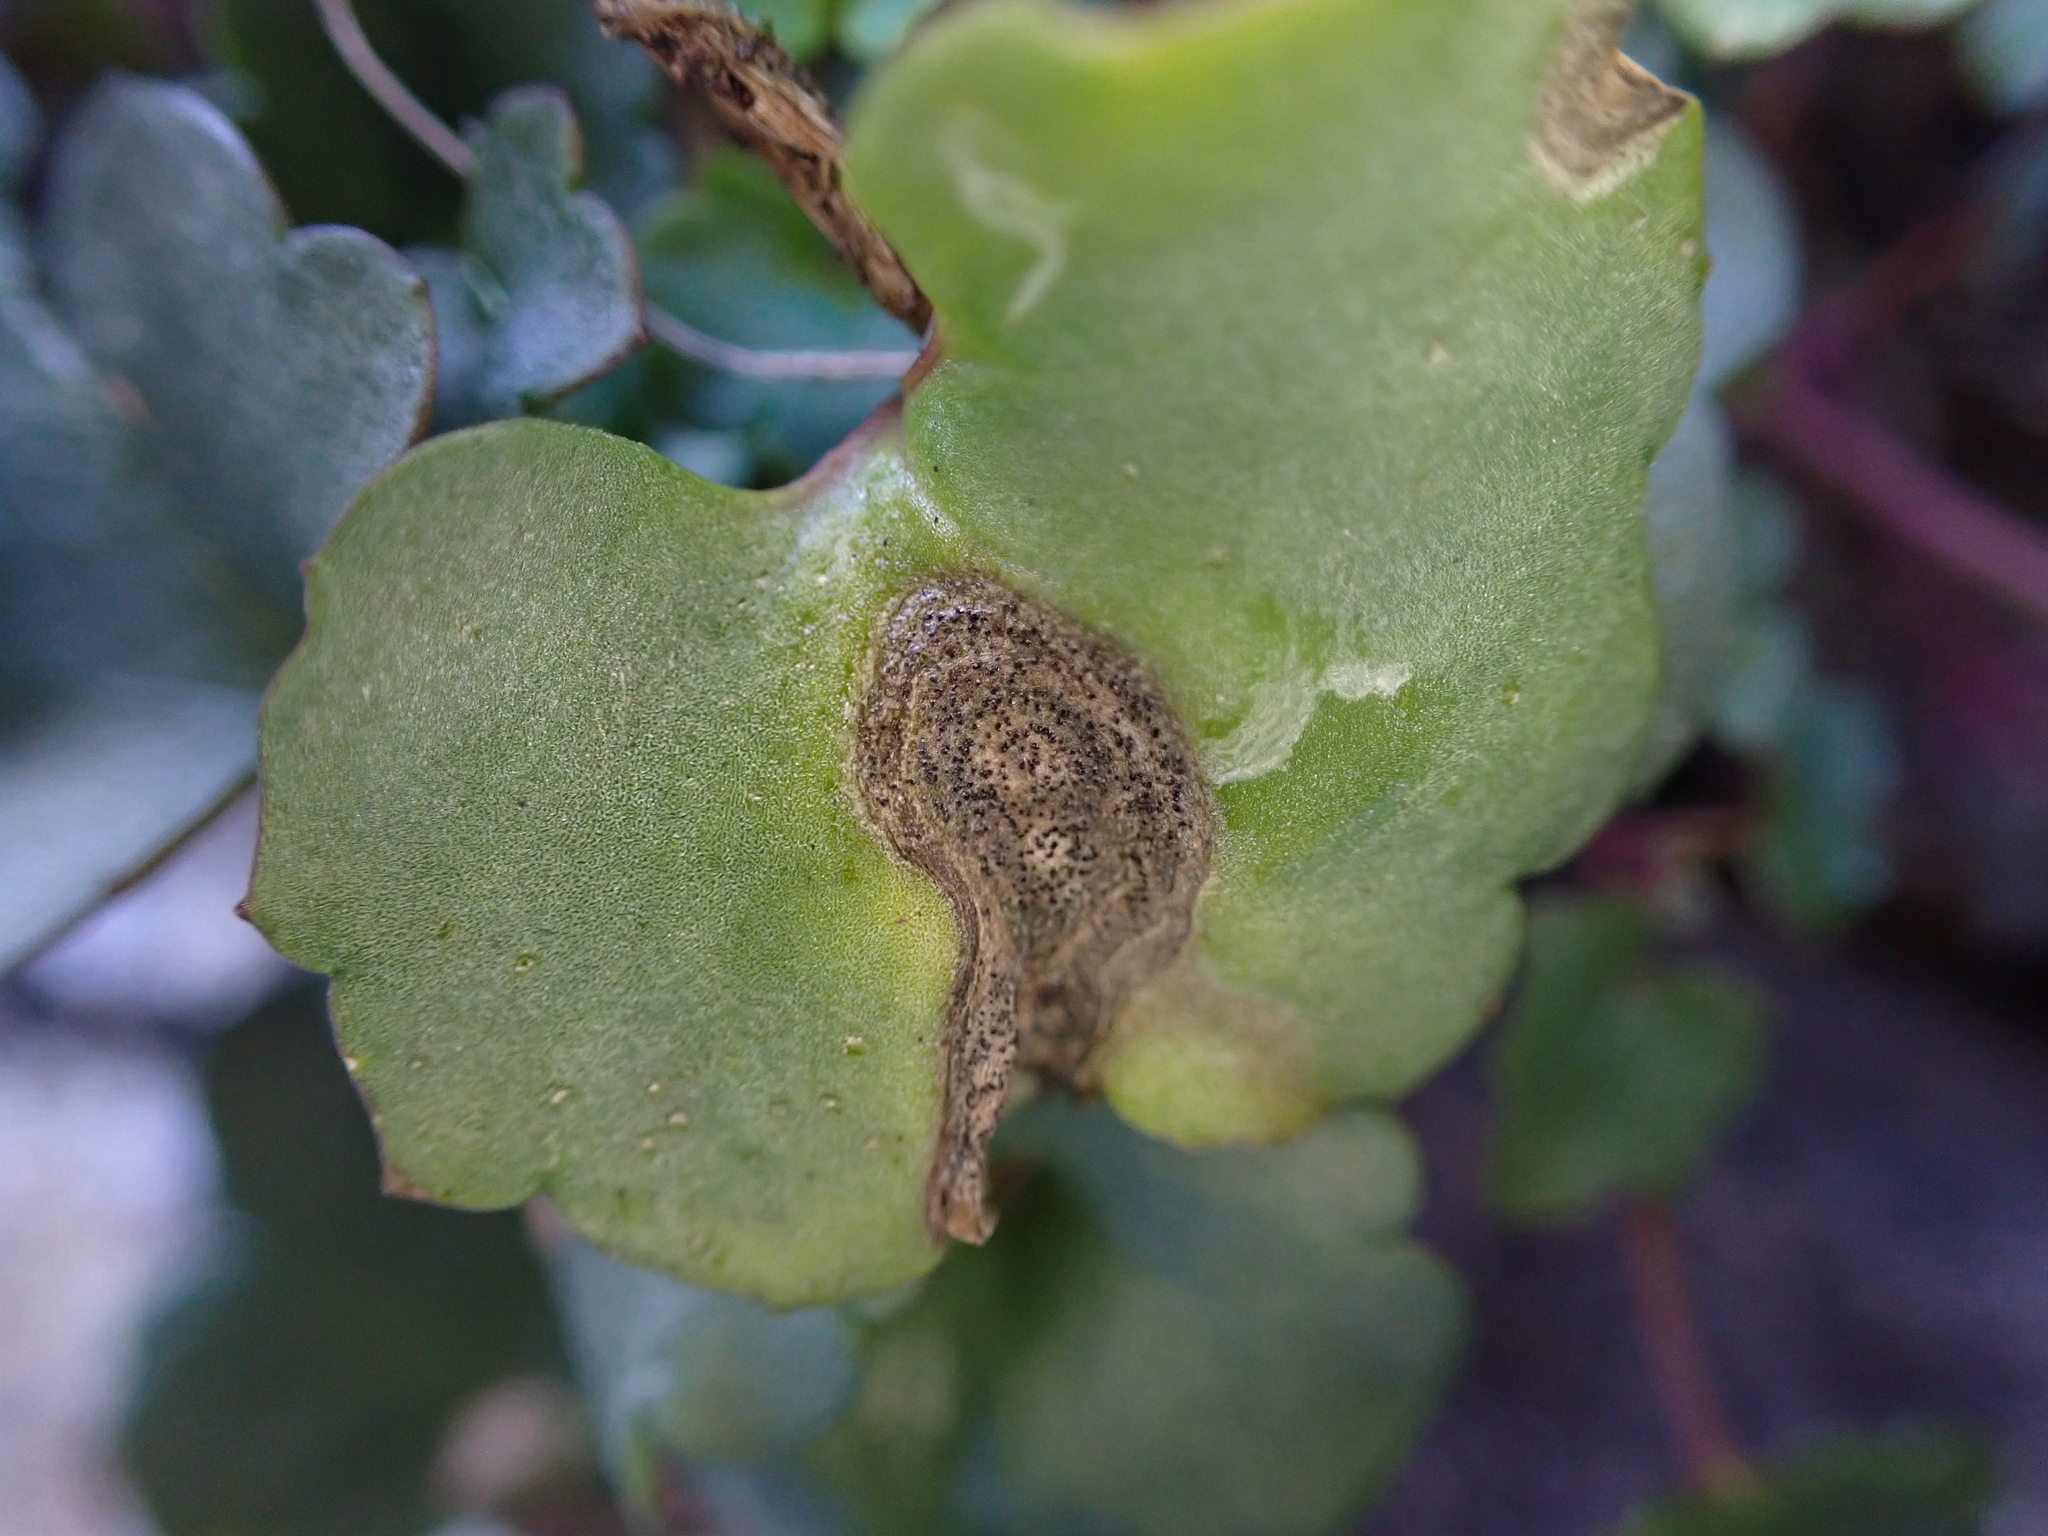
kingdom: Fungi
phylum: Ascomycota
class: Dothideomycetes
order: Mycosphaerellales
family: Mycosphaerellaceae
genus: Septoria
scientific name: Septoria cymbalariae
